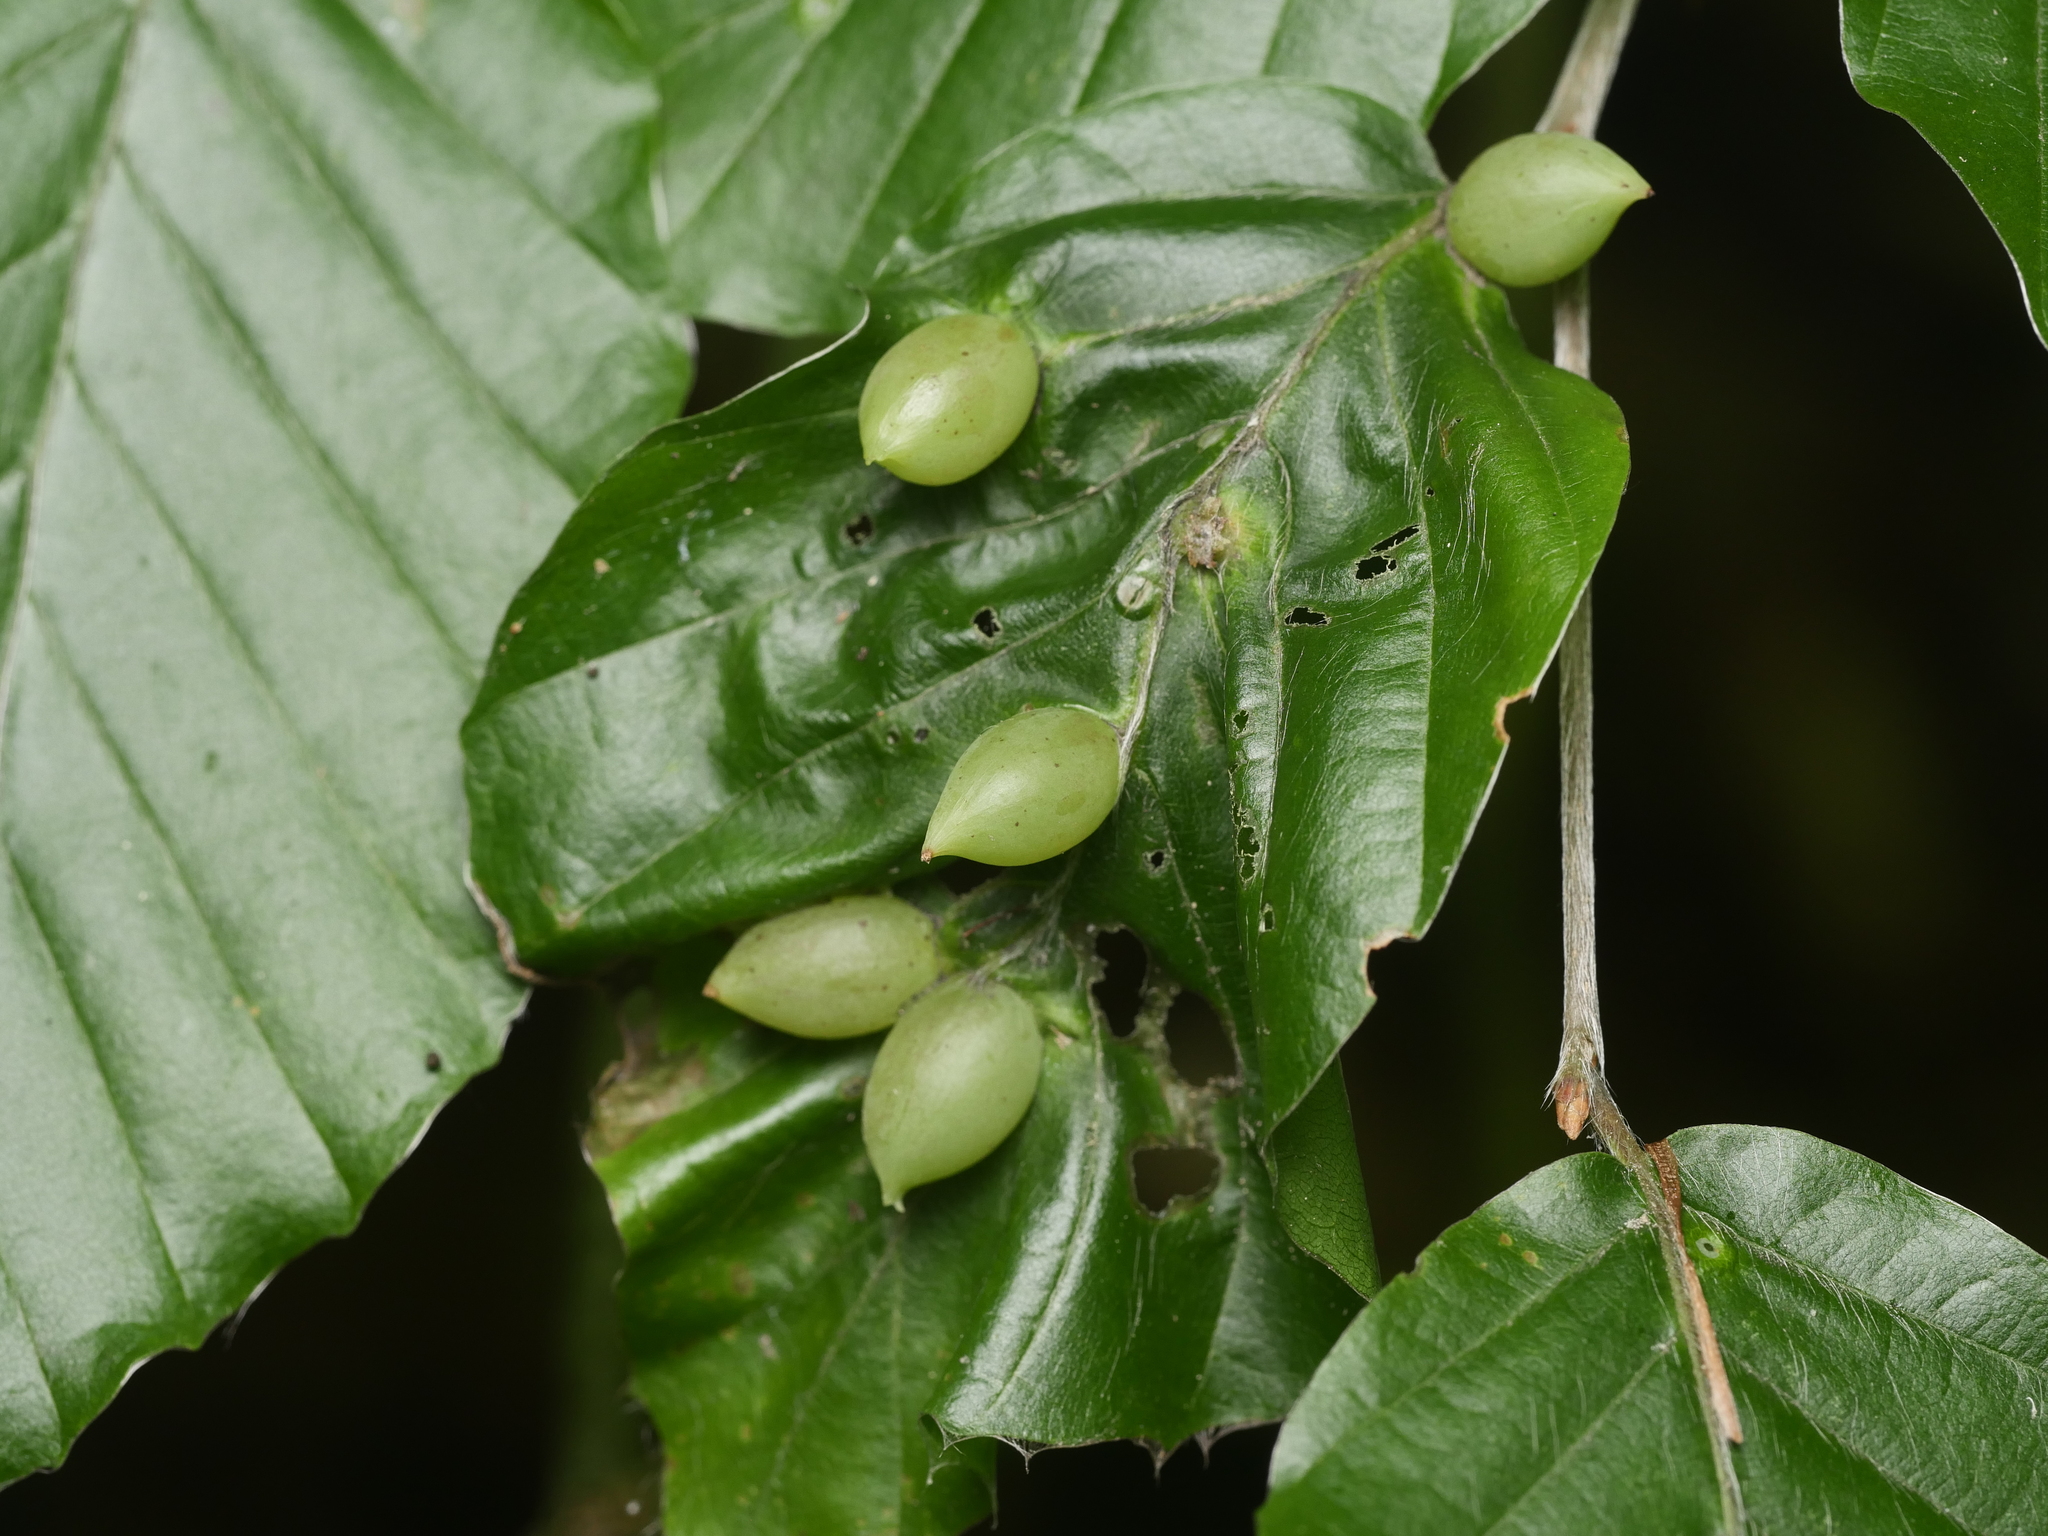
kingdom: Animalia
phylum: Arthropoda
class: Insecta
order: Diptera
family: Cecidomyiidae
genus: Mikiola
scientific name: Mikiola fagi
